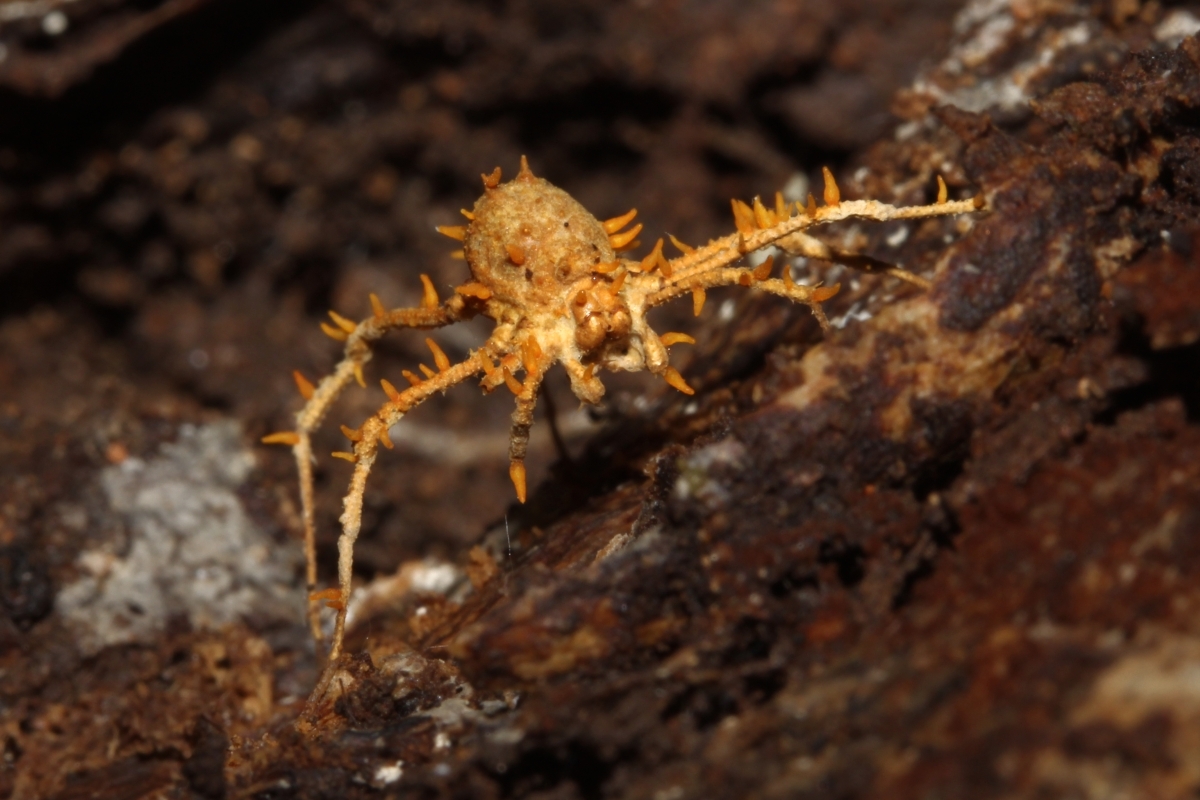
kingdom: Fungi
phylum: Ascomycota
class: Sordariomycetes
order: Hypocreales
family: Cordycipitaceae
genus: Akanthomyces
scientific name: Akanthomyces
